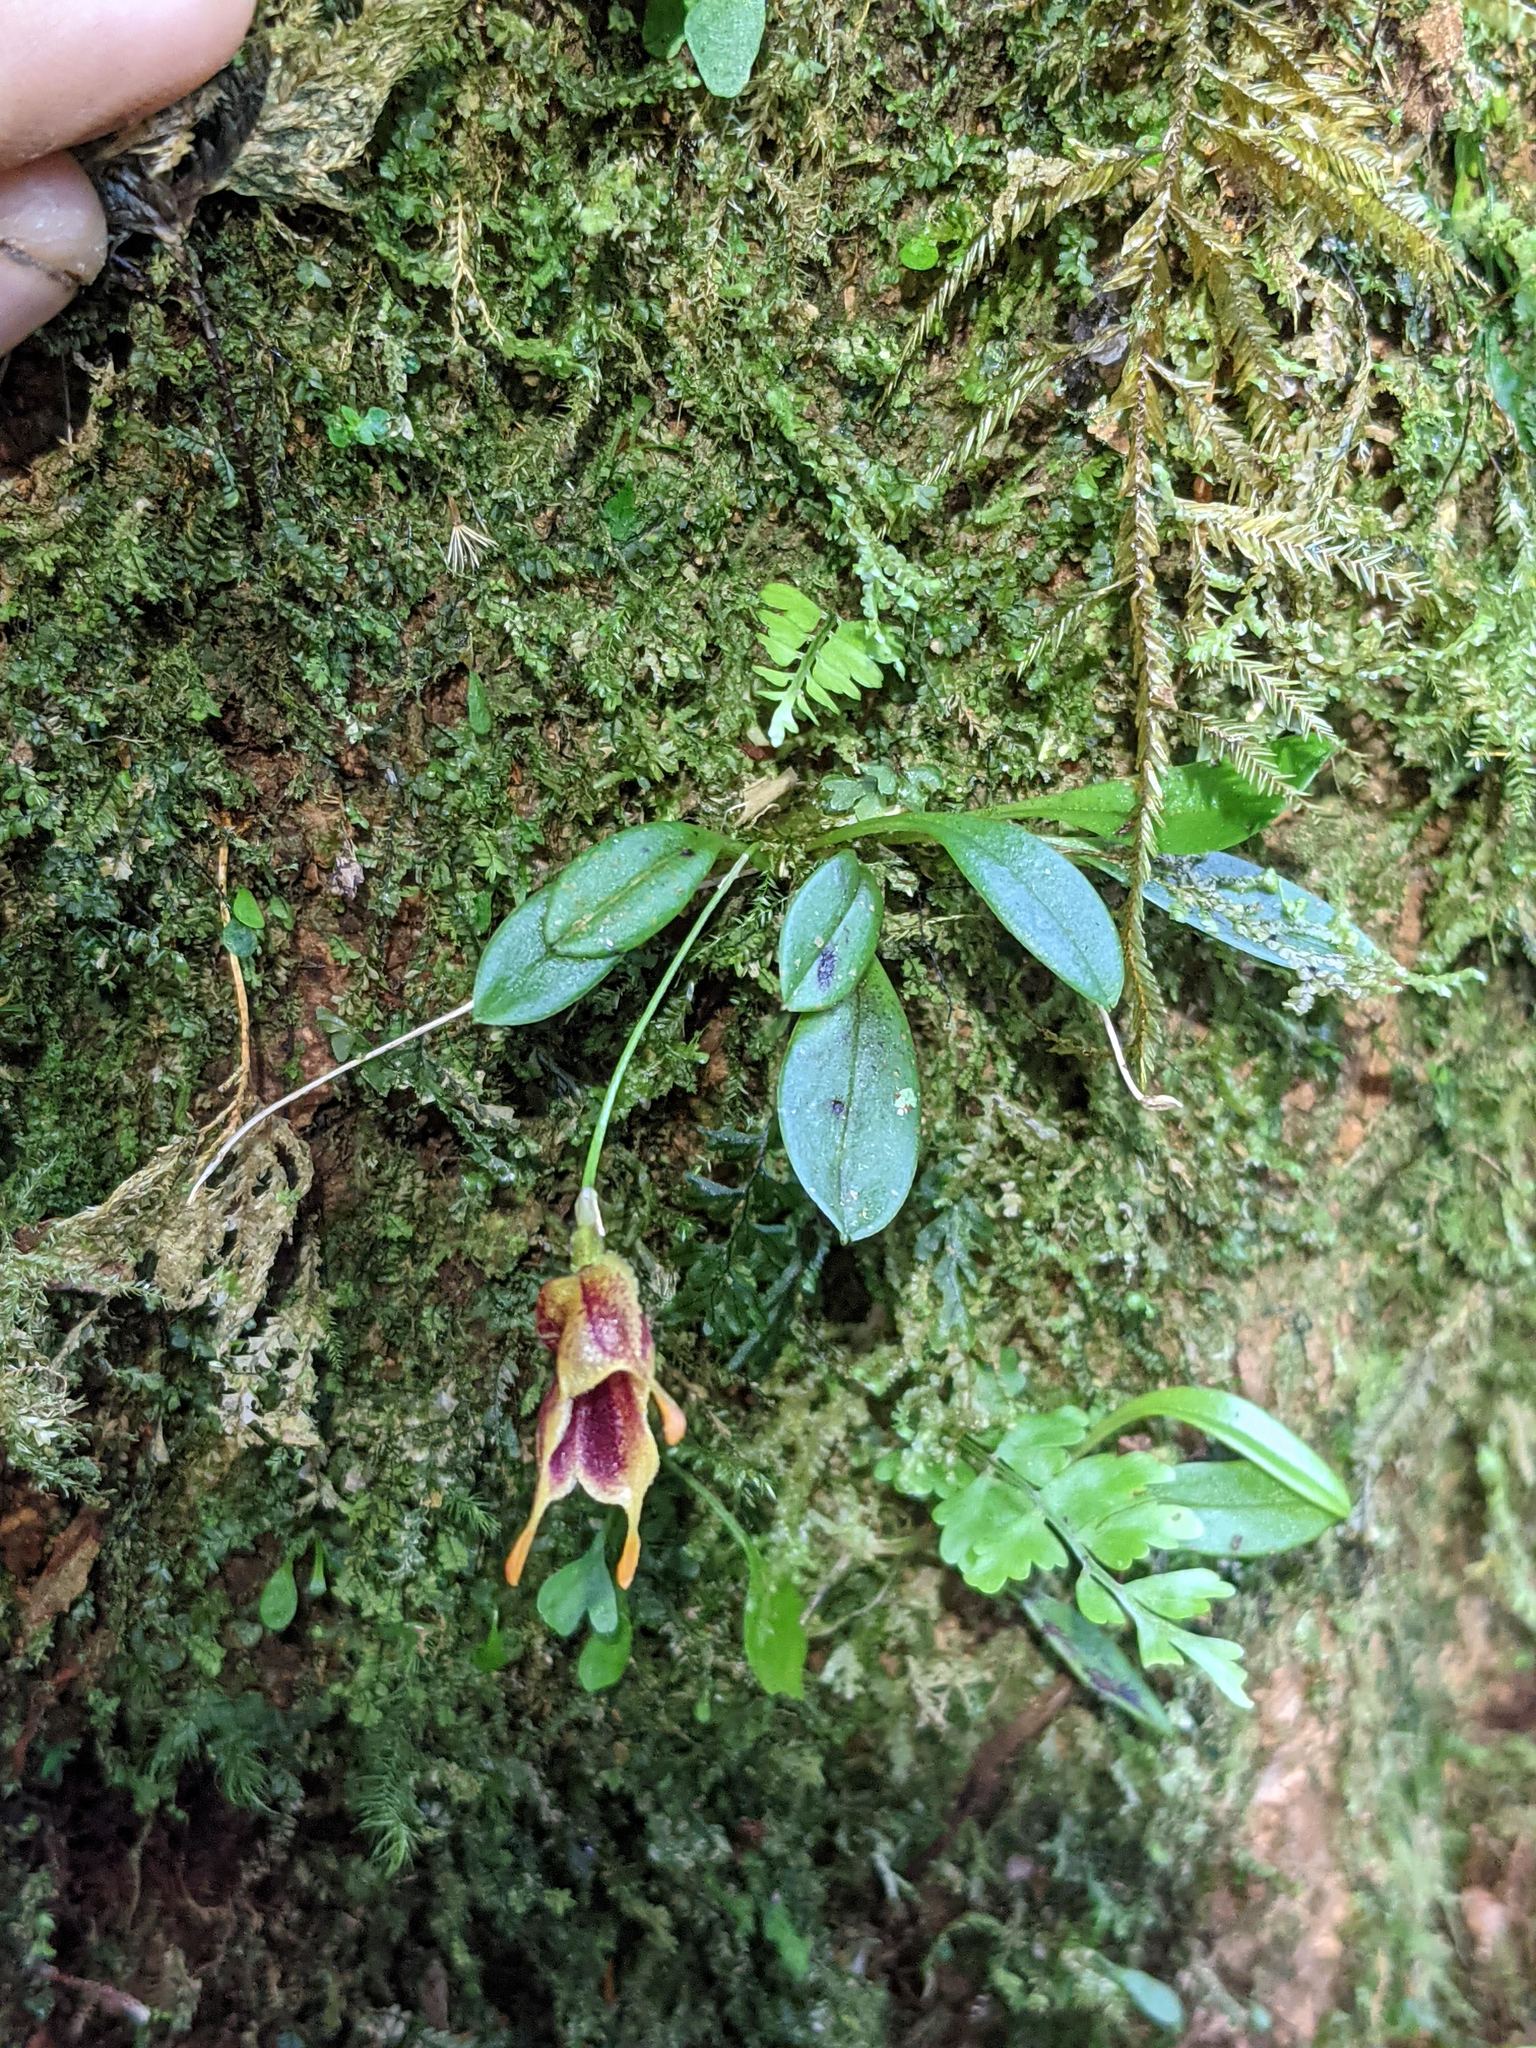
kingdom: Plantae
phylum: Tracheophyta
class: Liliopsida
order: Asparagales
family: Orchidaceae
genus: Masdevallia
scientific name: Masdevallia molossoides
